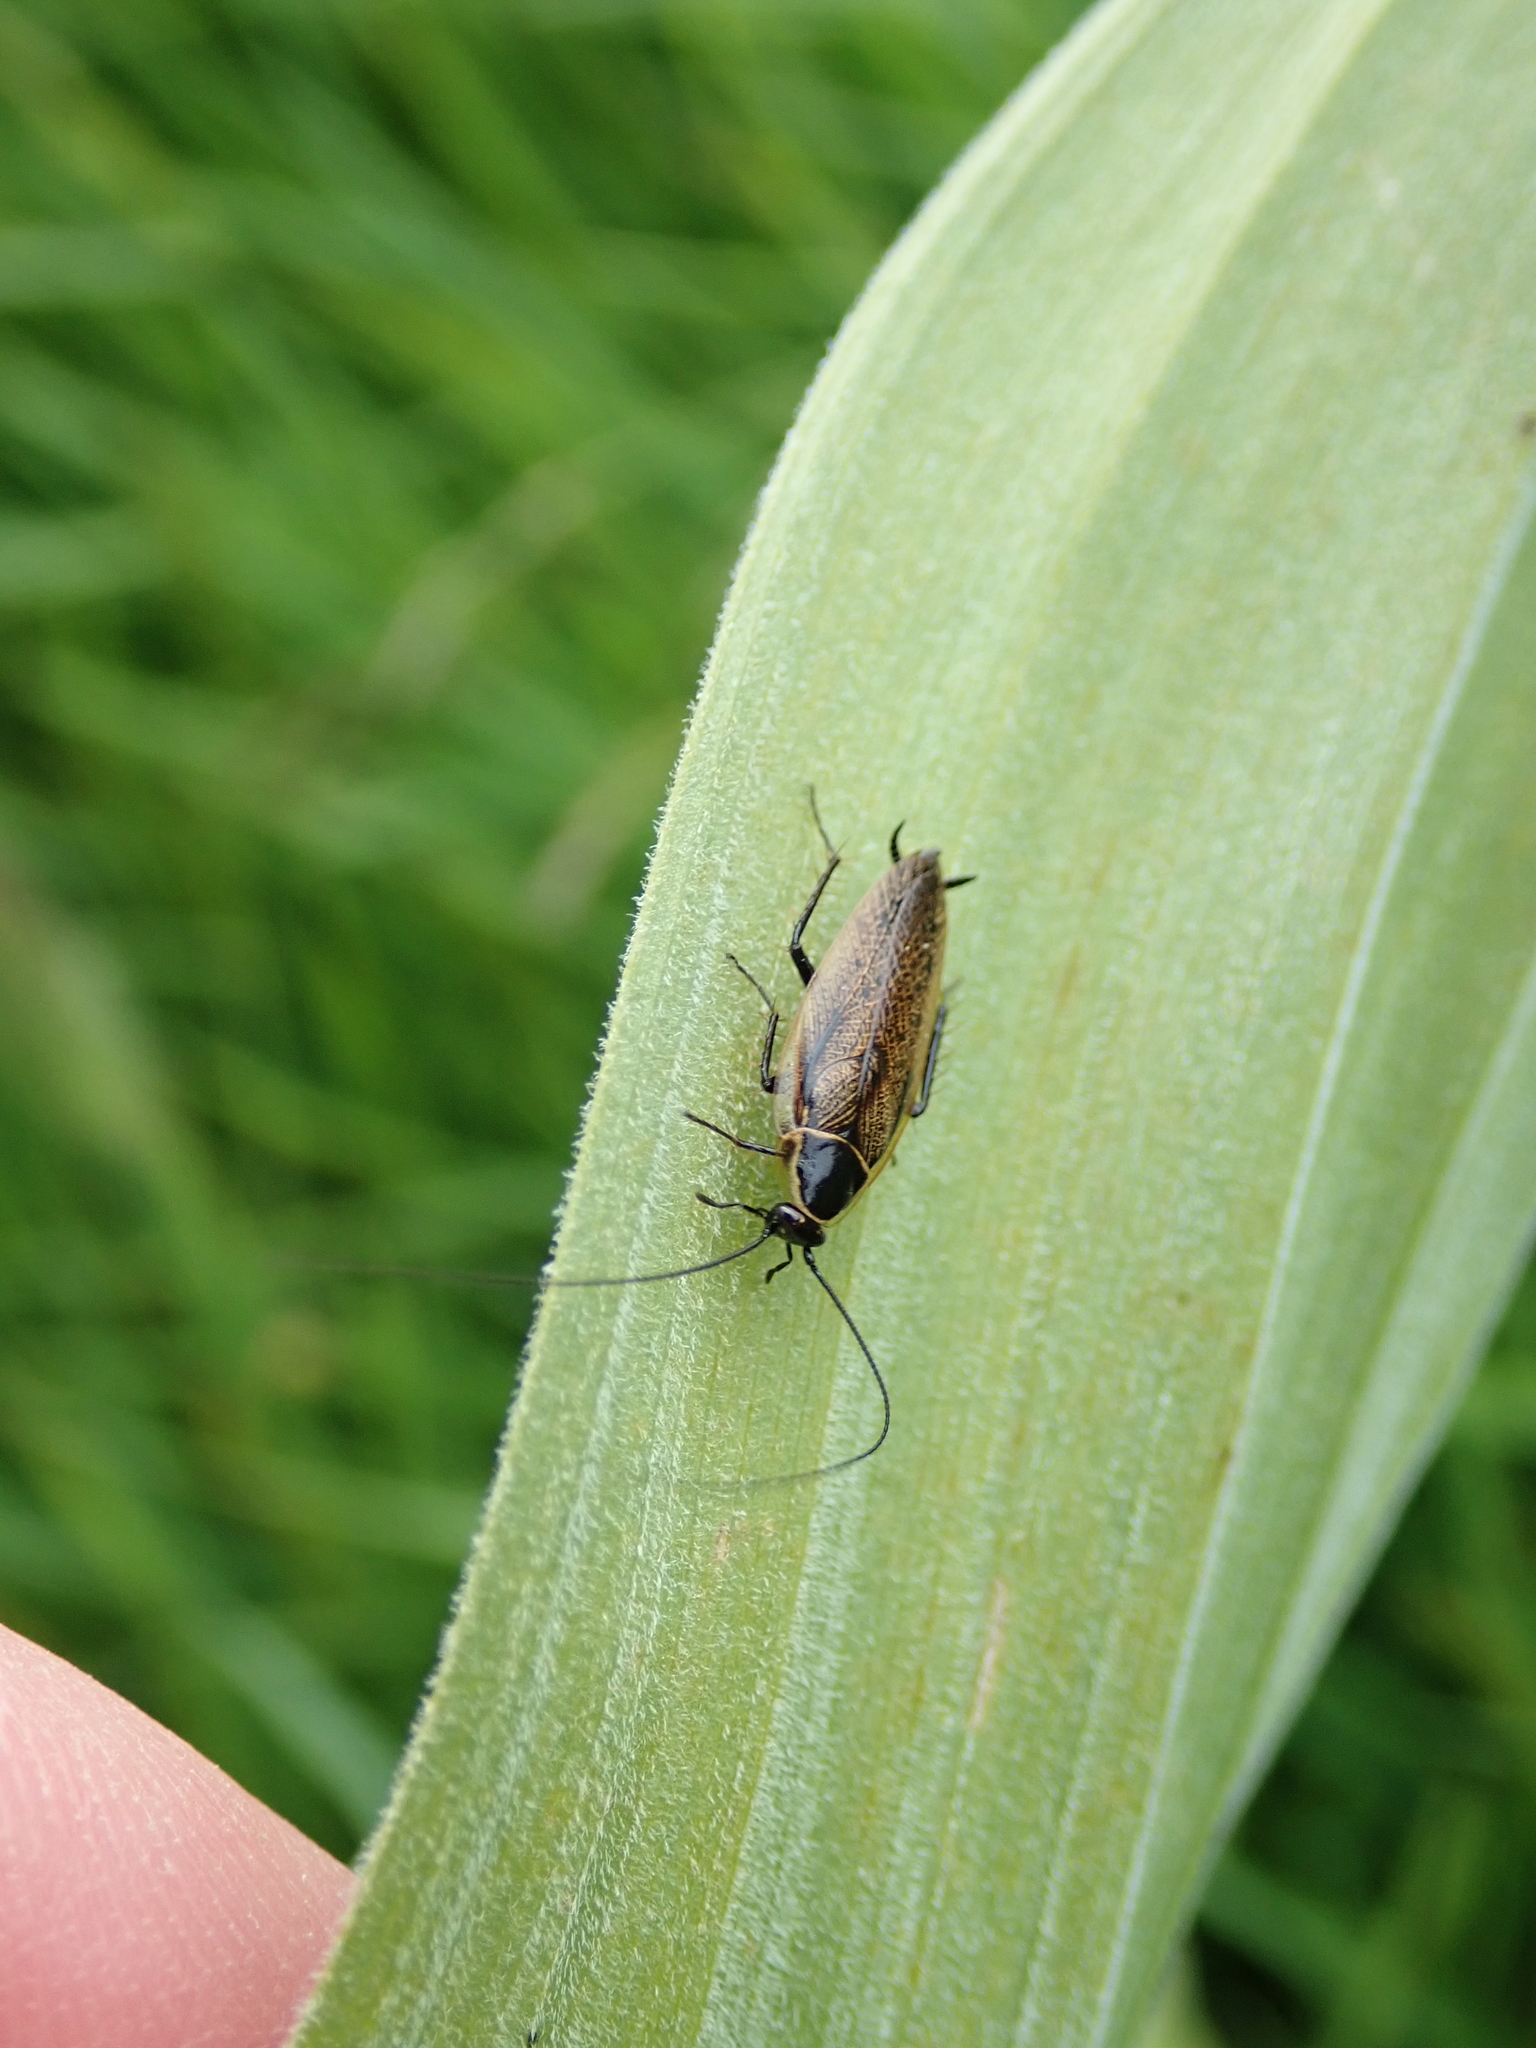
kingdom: Animalia
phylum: Arthropoda
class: Insecta
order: Blattodea
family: Ectobiidae
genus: Ectobius
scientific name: Ectobius sylvestris
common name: Forest cockroach
